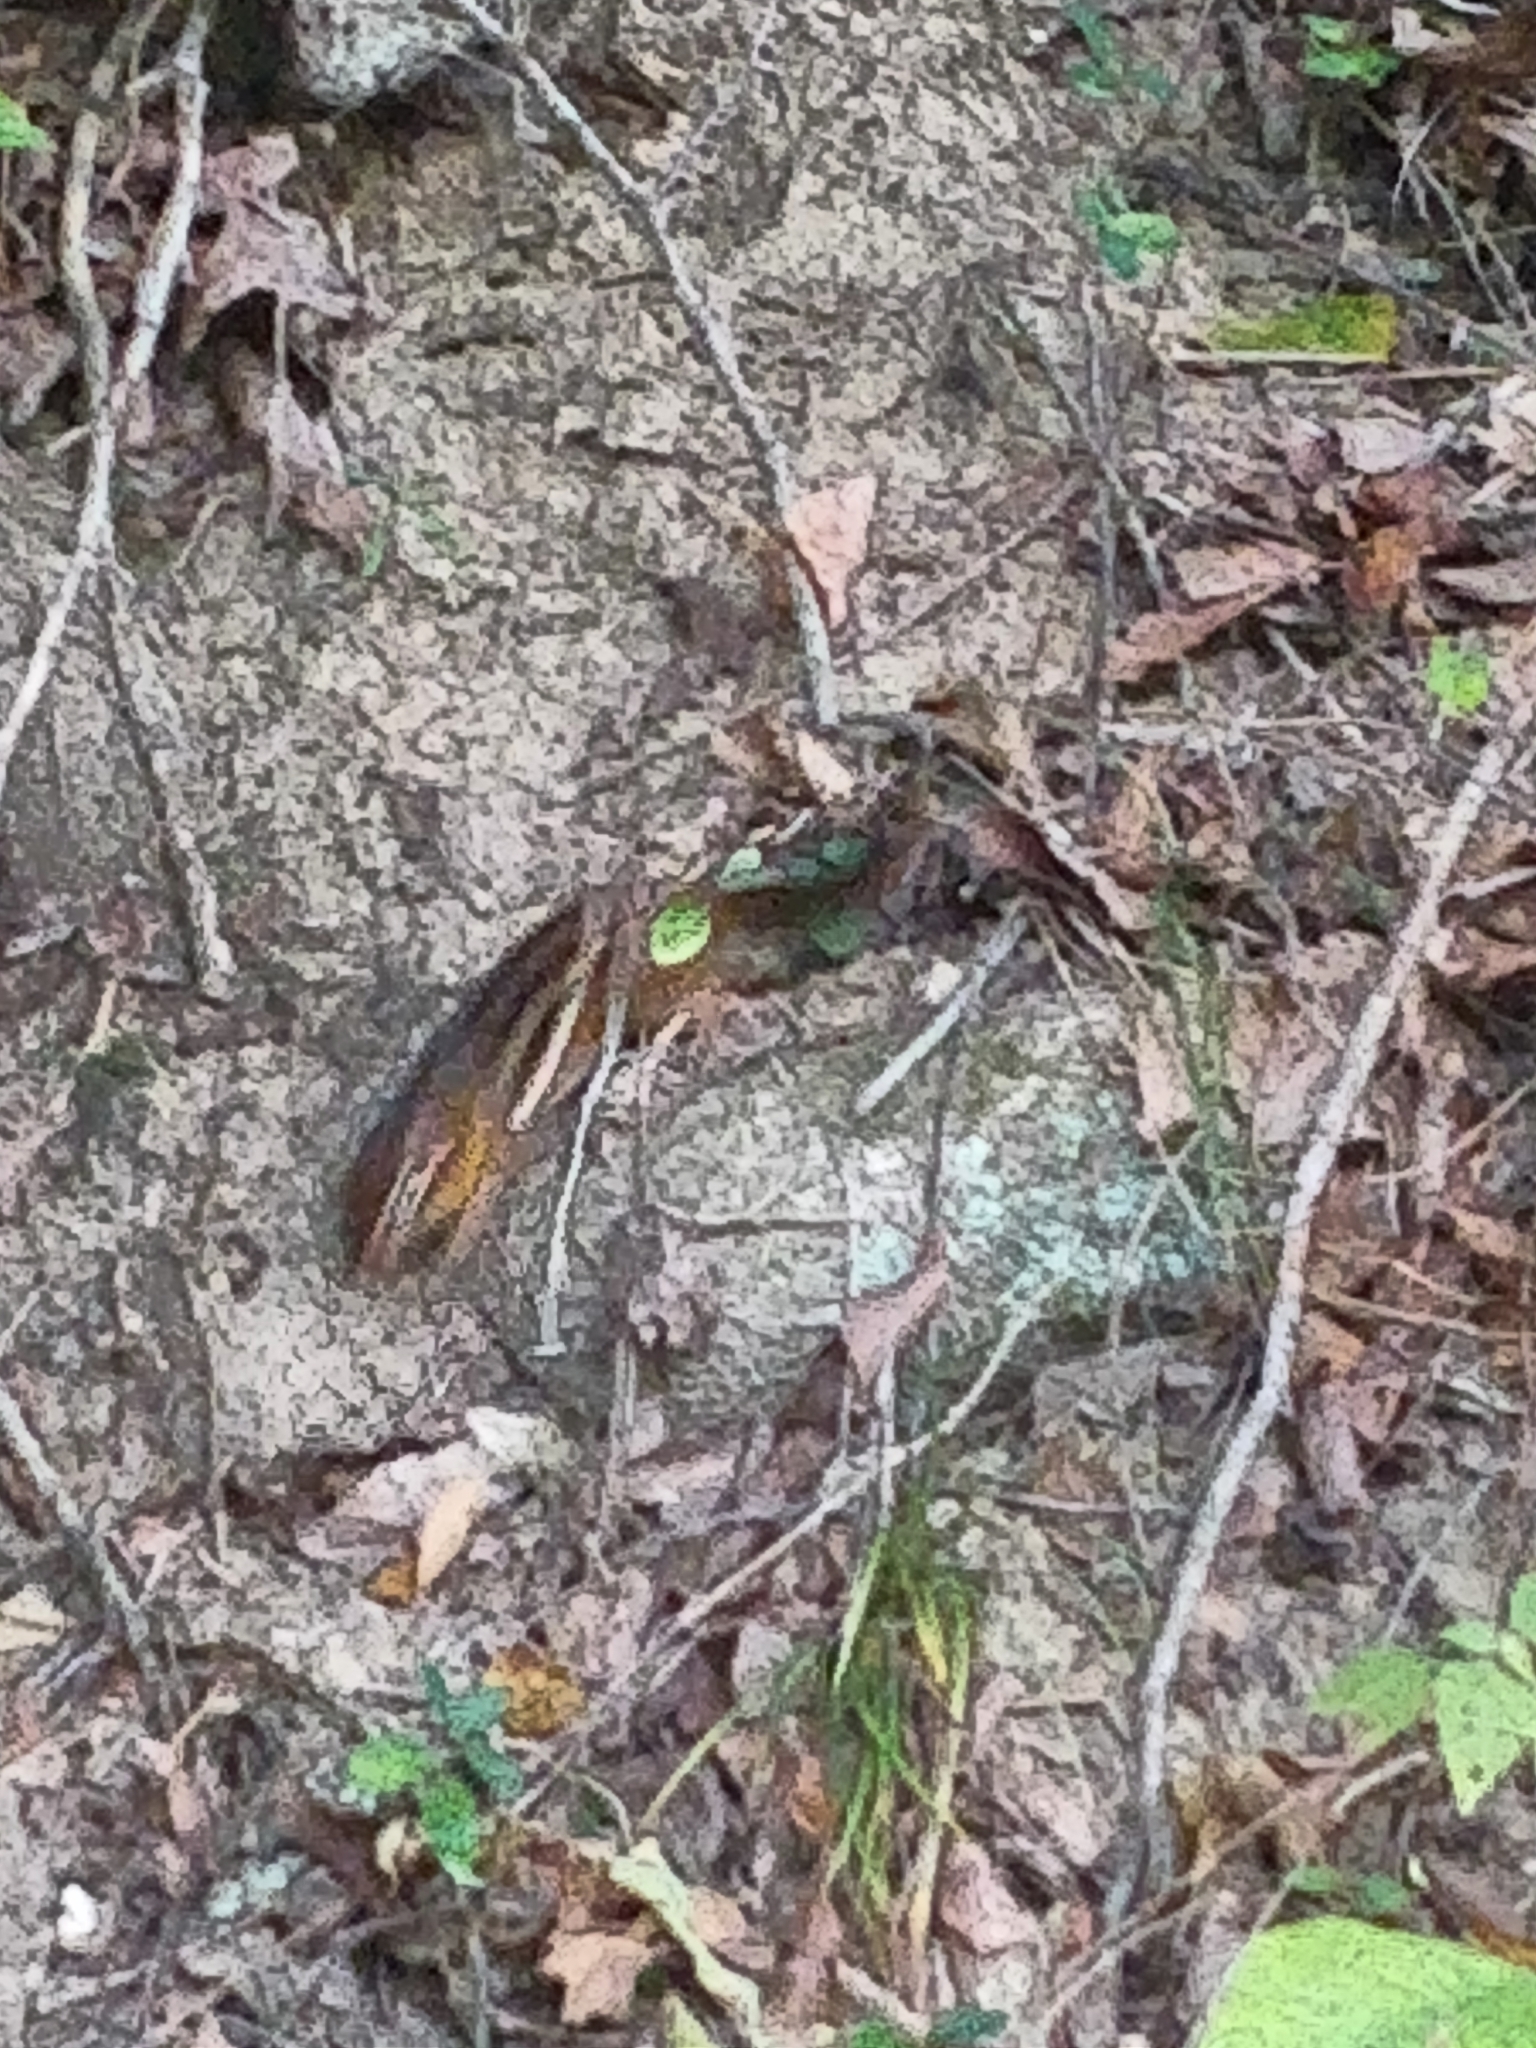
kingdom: Animalia
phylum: Chordata
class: Mammalia
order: Rodentia
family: Sciuridae
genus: Tamias
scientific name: Tamias striatus
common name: Eastern chipmunk
